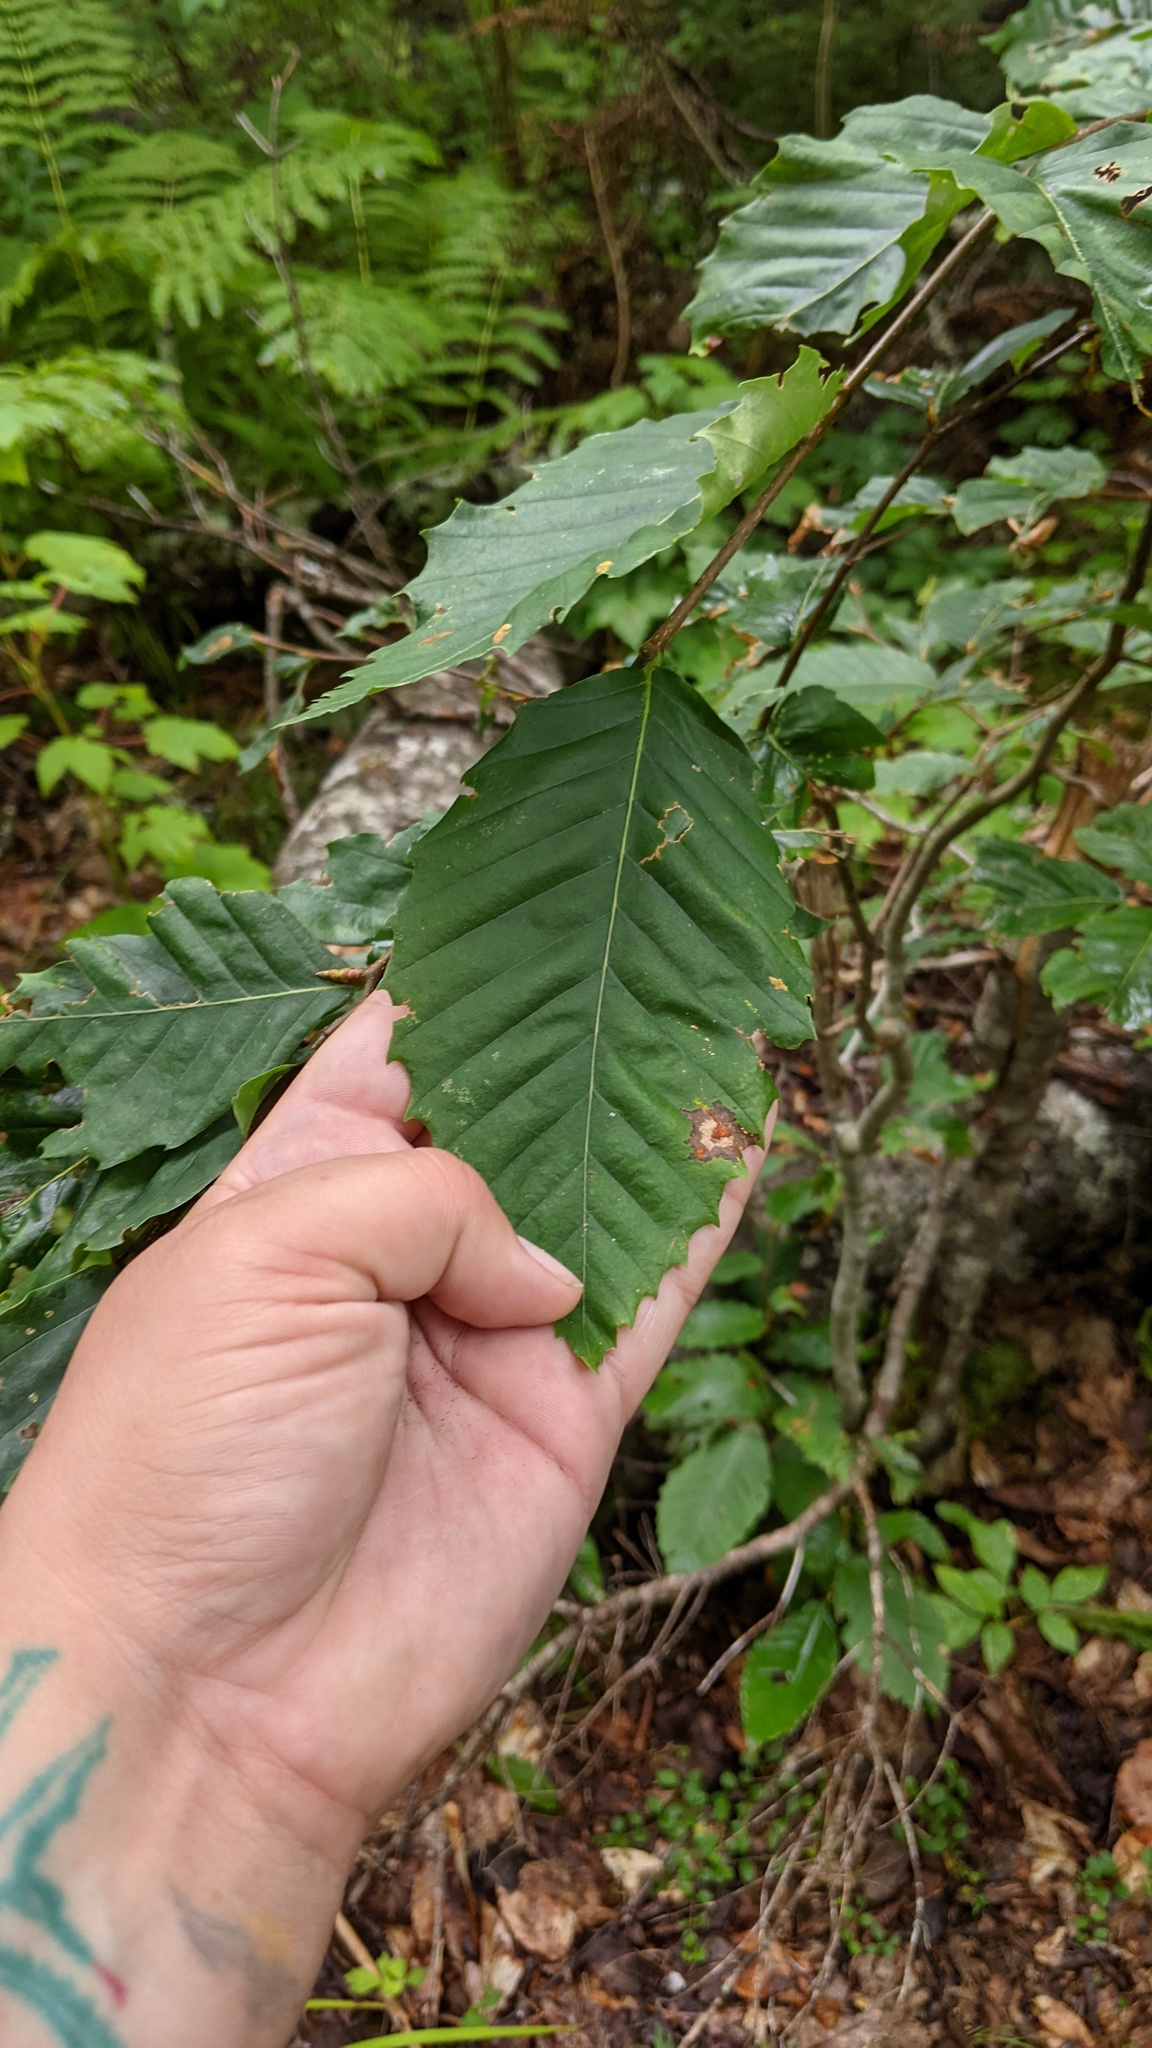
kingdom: Plantae
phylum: Tracheophyta
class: Magnoliopsida
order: Fagales
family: Fagaceae
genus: Fagus
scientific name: Fagus grandifolia
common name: American beech
